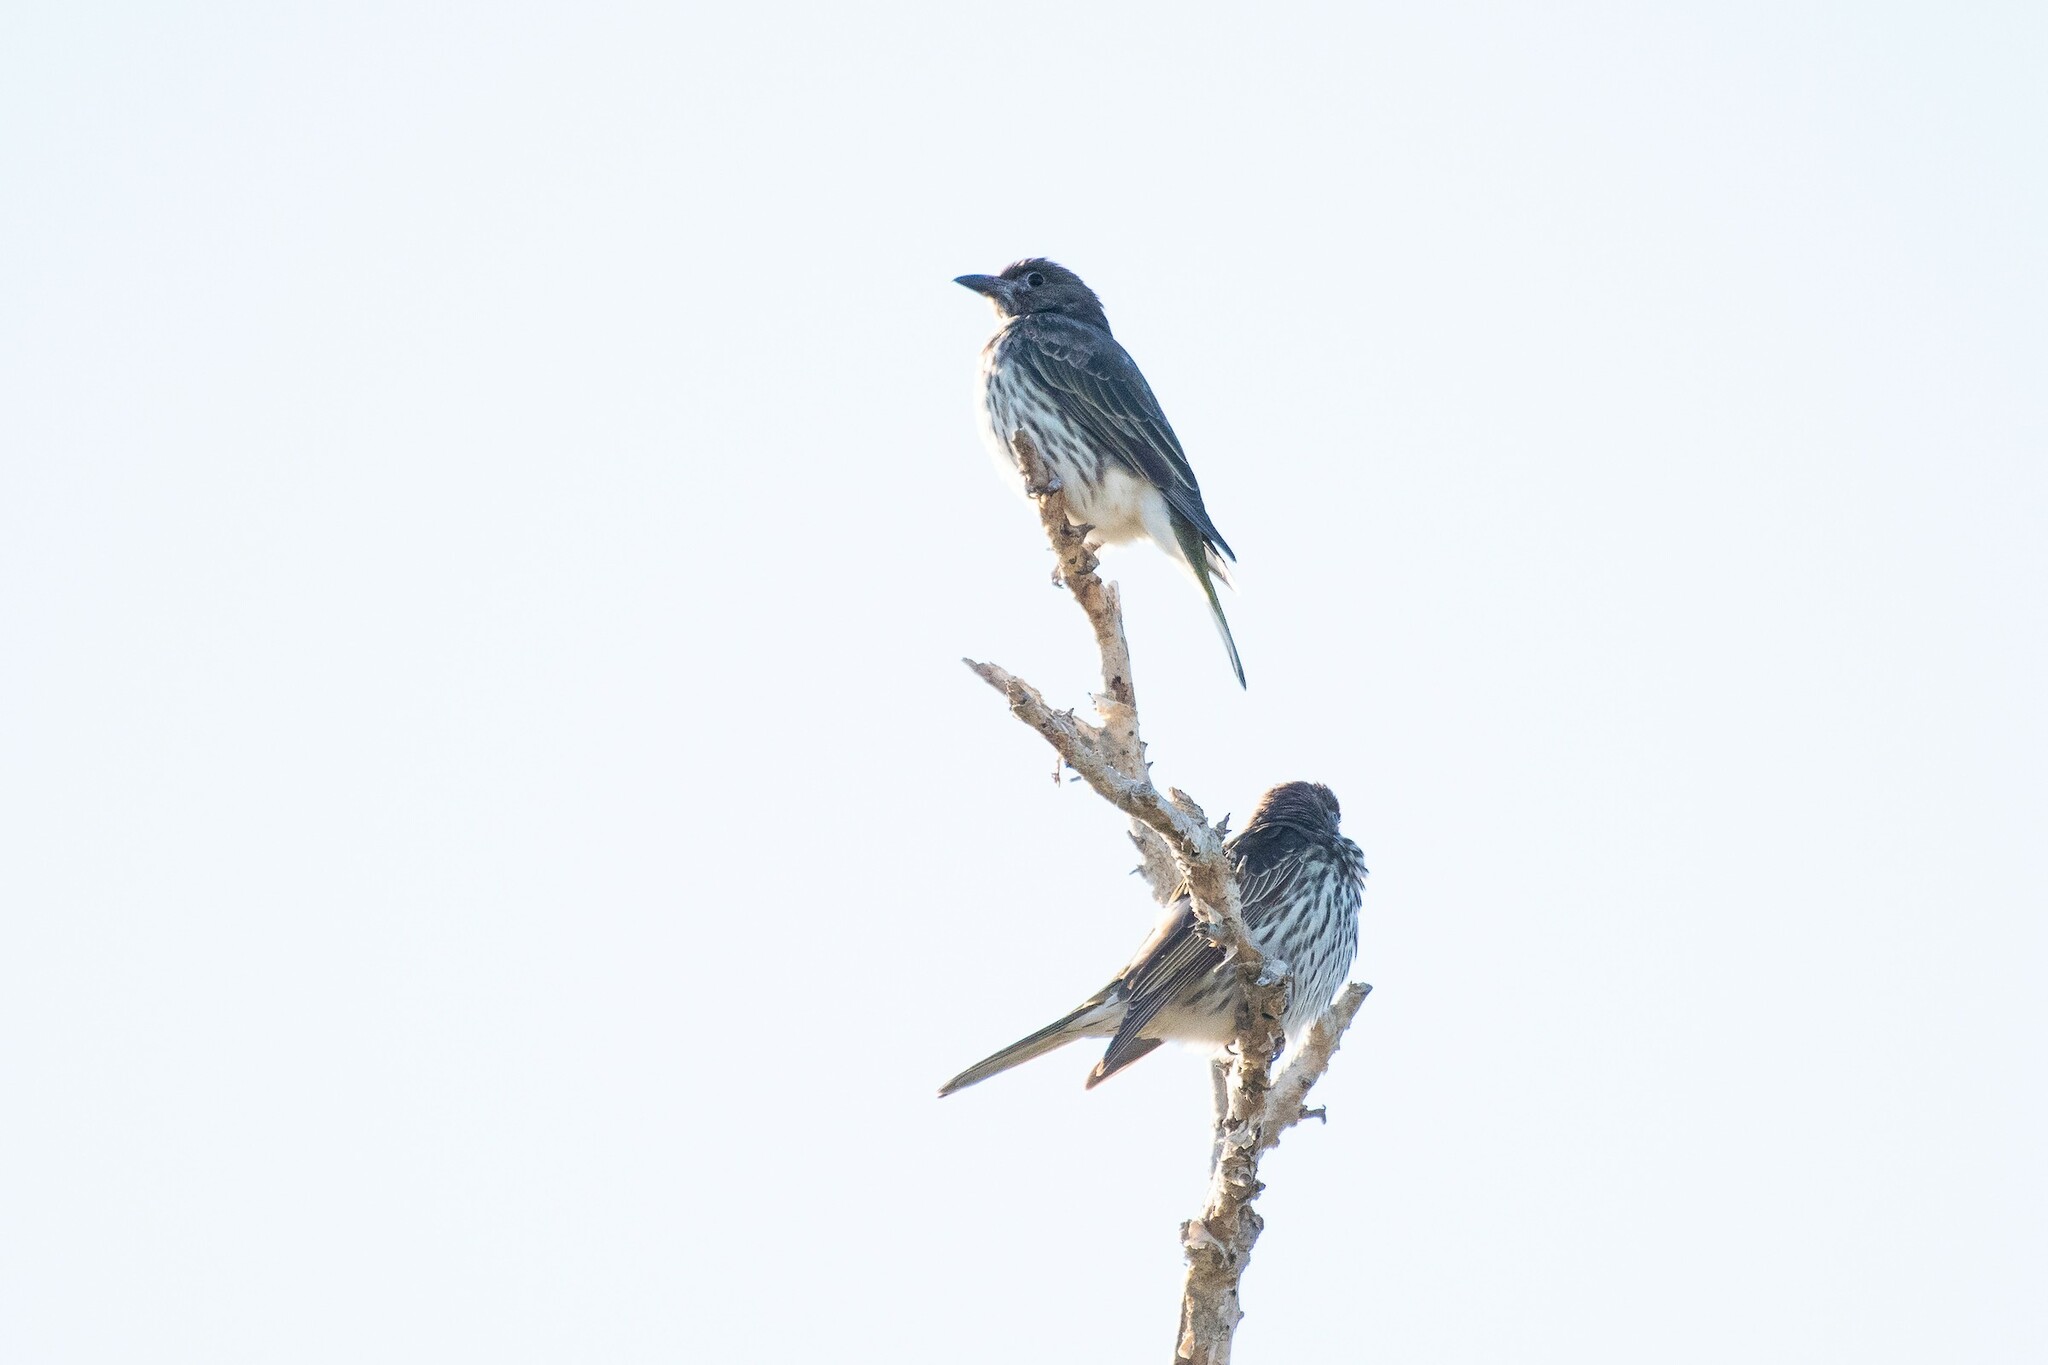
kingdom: Animalia
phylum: Chordata
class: Aves
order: Passeriformes
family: Oriolidae
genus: Sphecotheres
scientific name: Sphecotheres vieilloti
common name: Australasian figbird
